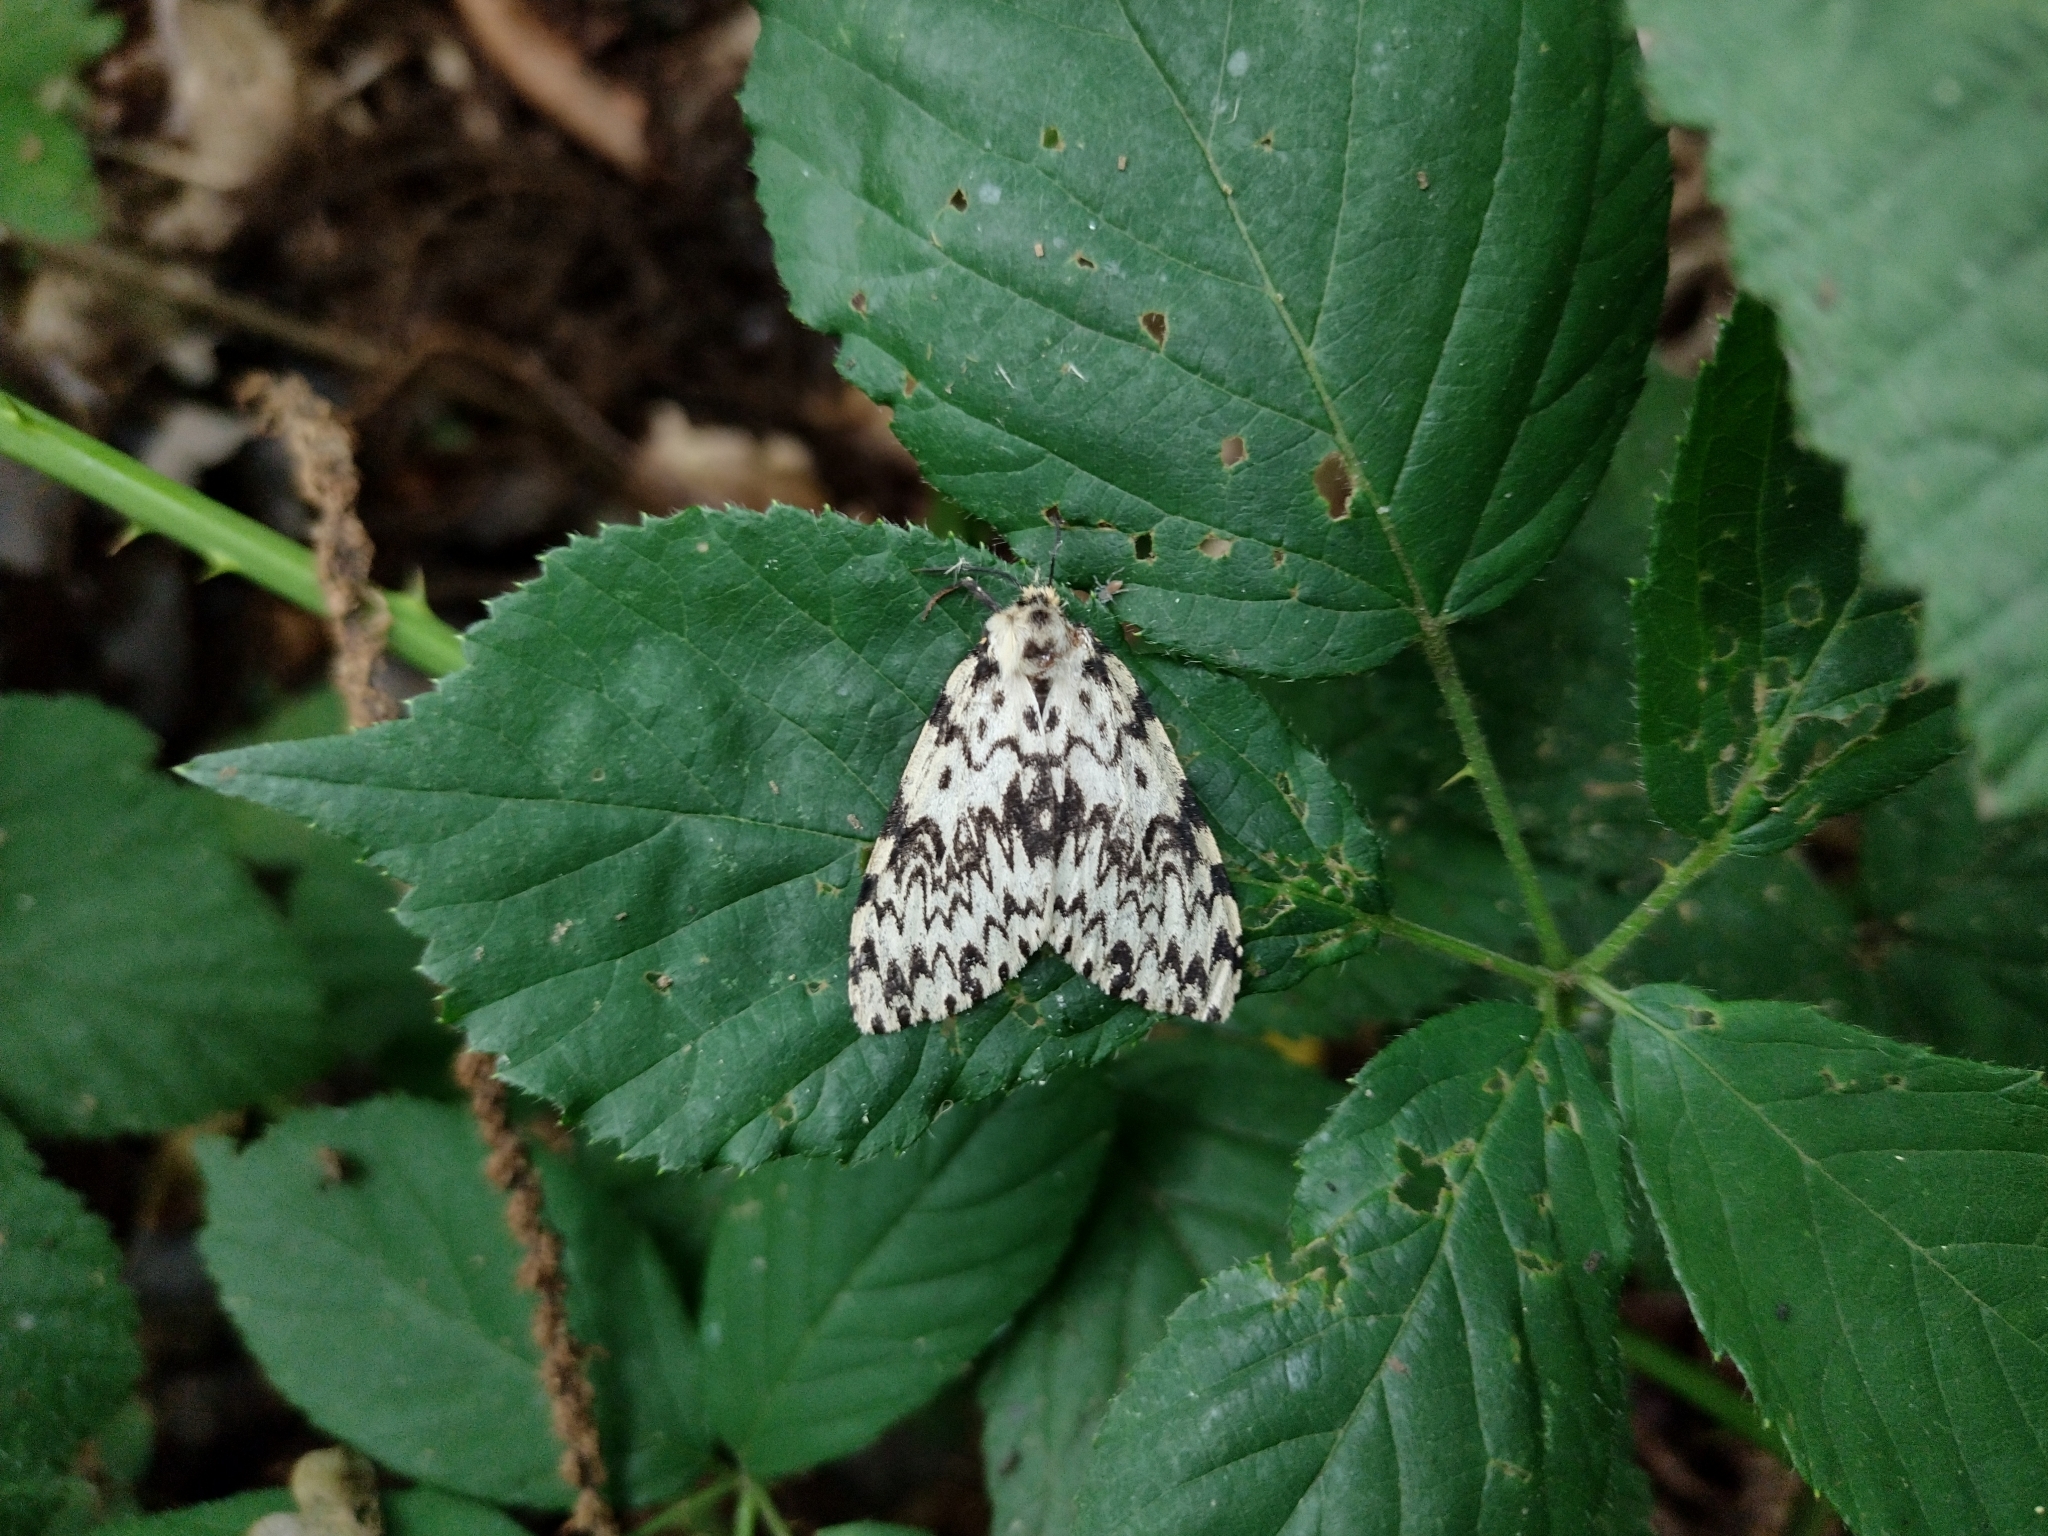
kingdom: Animalia
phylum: Arthropoda
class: Insecta
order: Lepidoptera
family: Erebidae
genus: Lymantria
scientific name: Lymantria monacha
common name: Black arches
